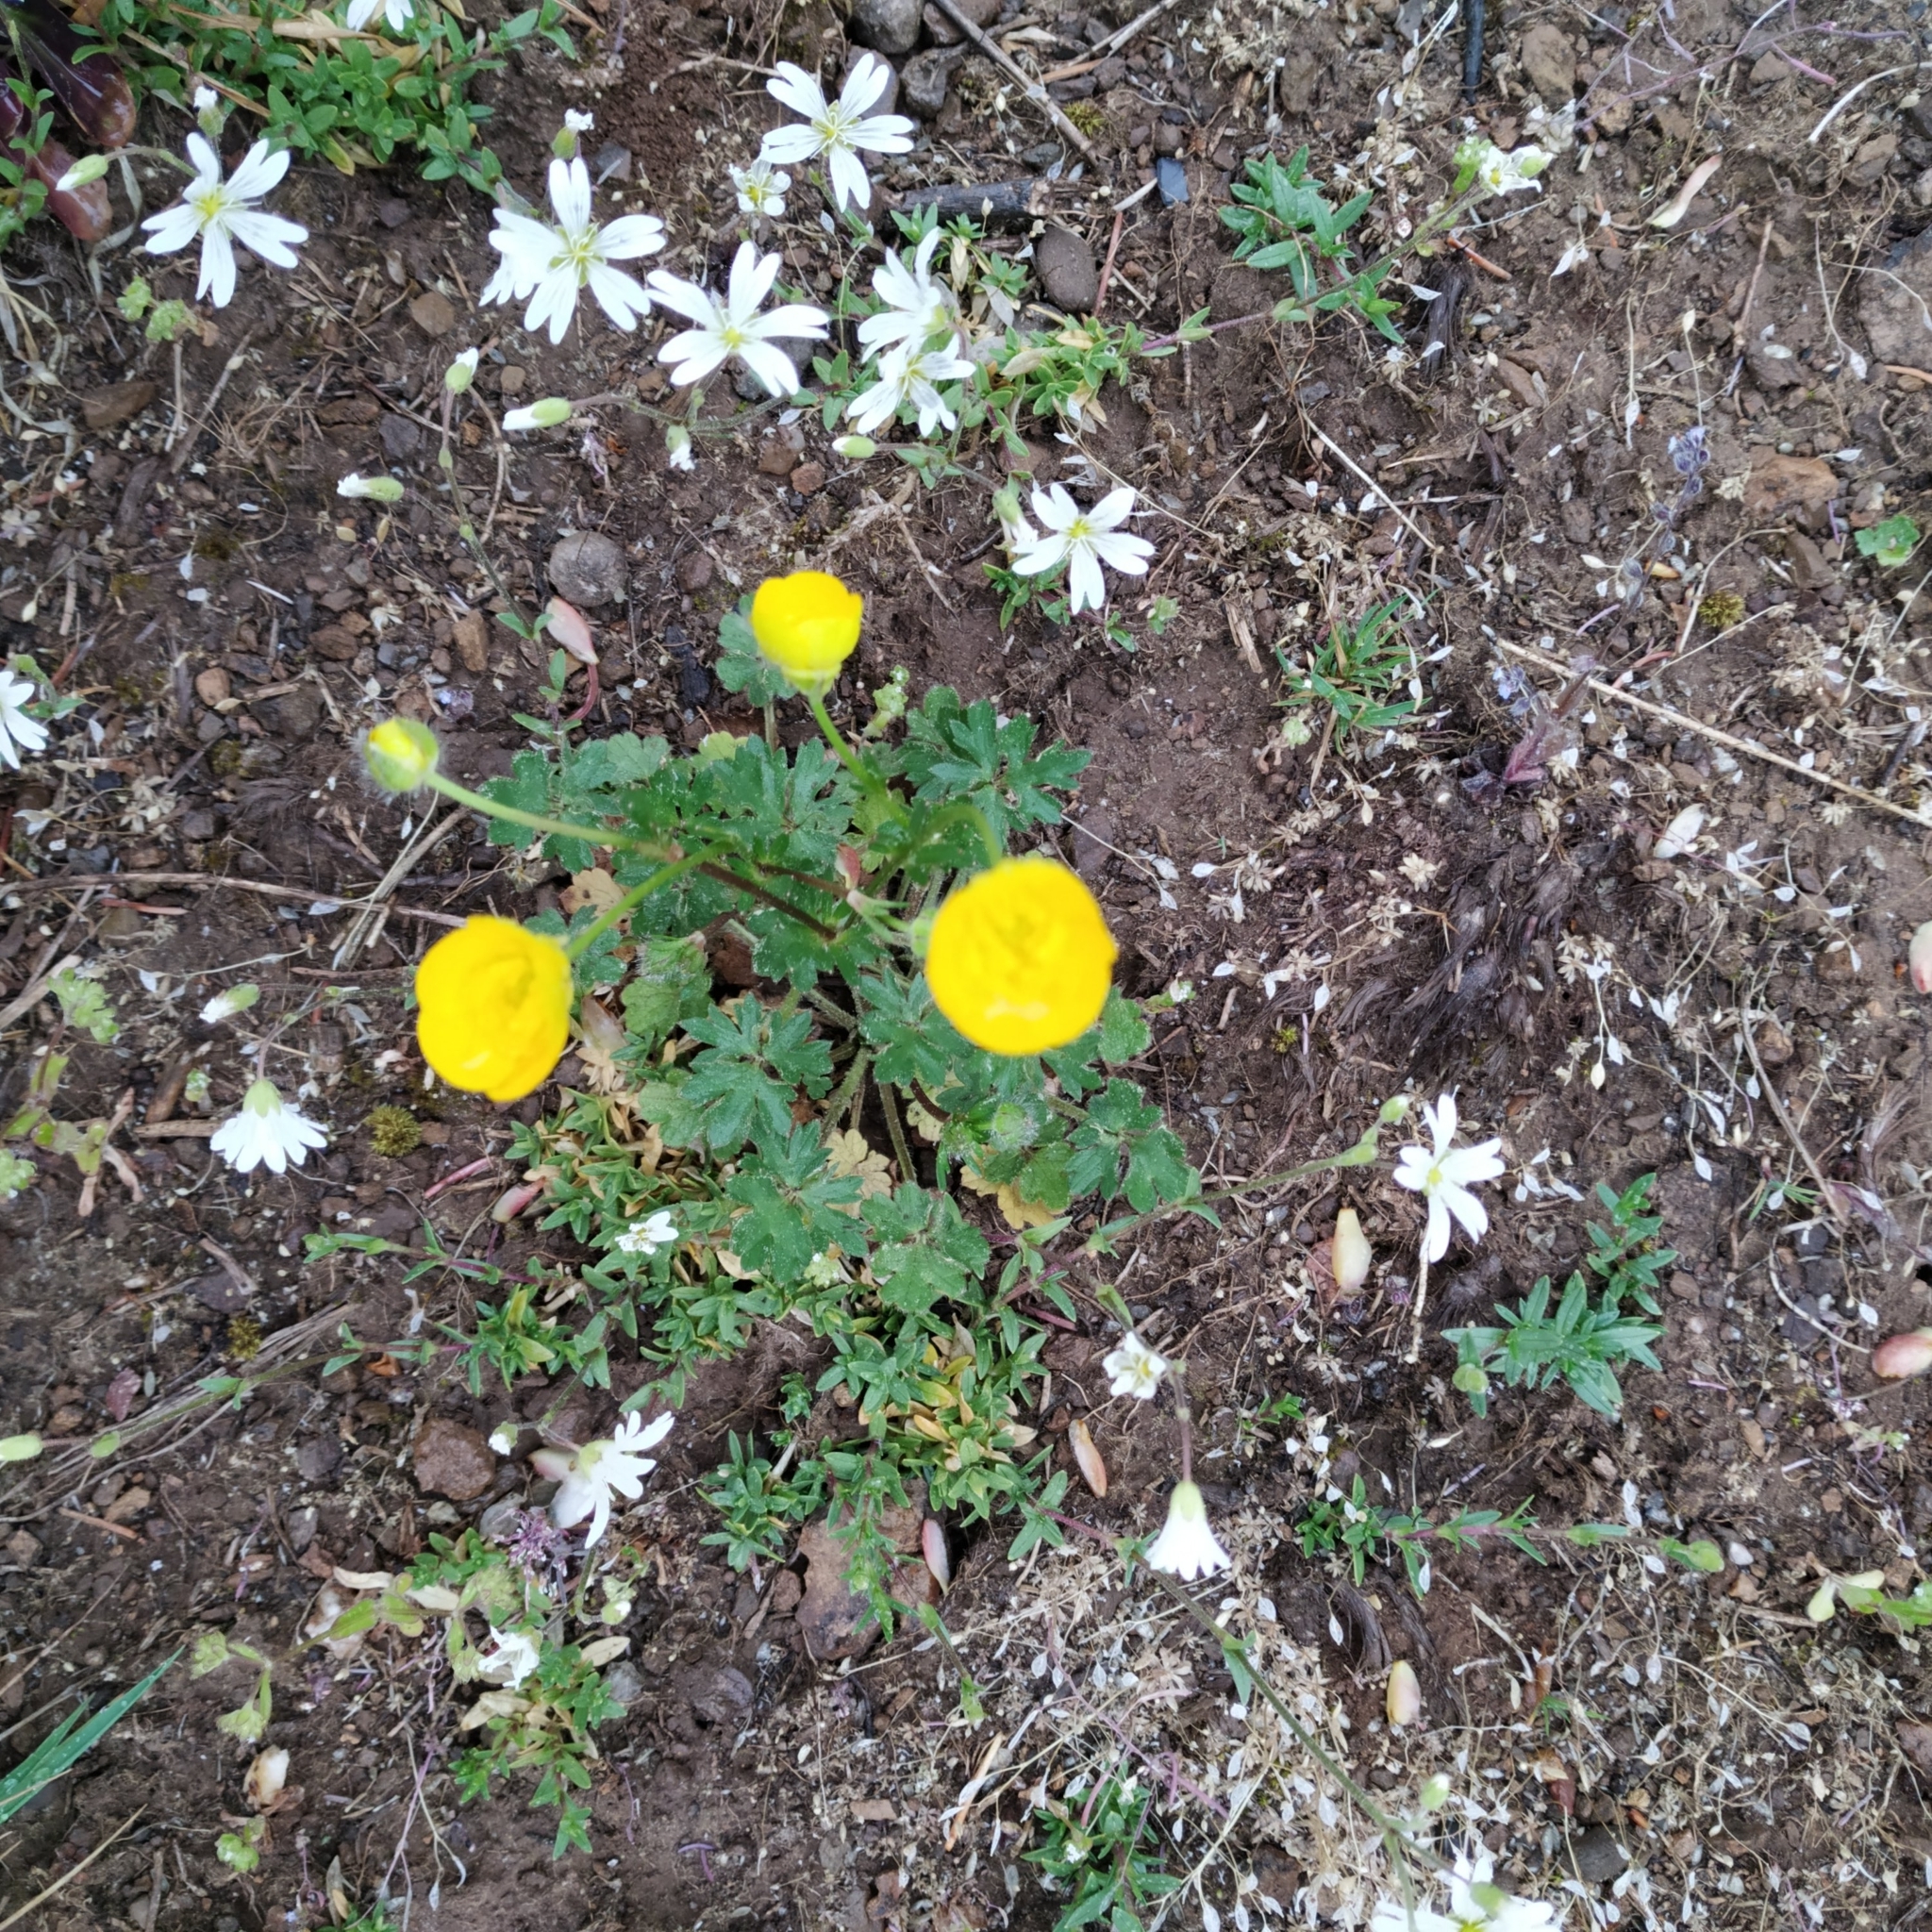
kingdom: Plantae
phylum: Tracheophyta
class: Magnoliopsida
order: Ranunculales
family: Ranunculaceae
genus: Ranunculus
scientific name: Ranunculus bulbosus
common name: Bulbous buttercup
